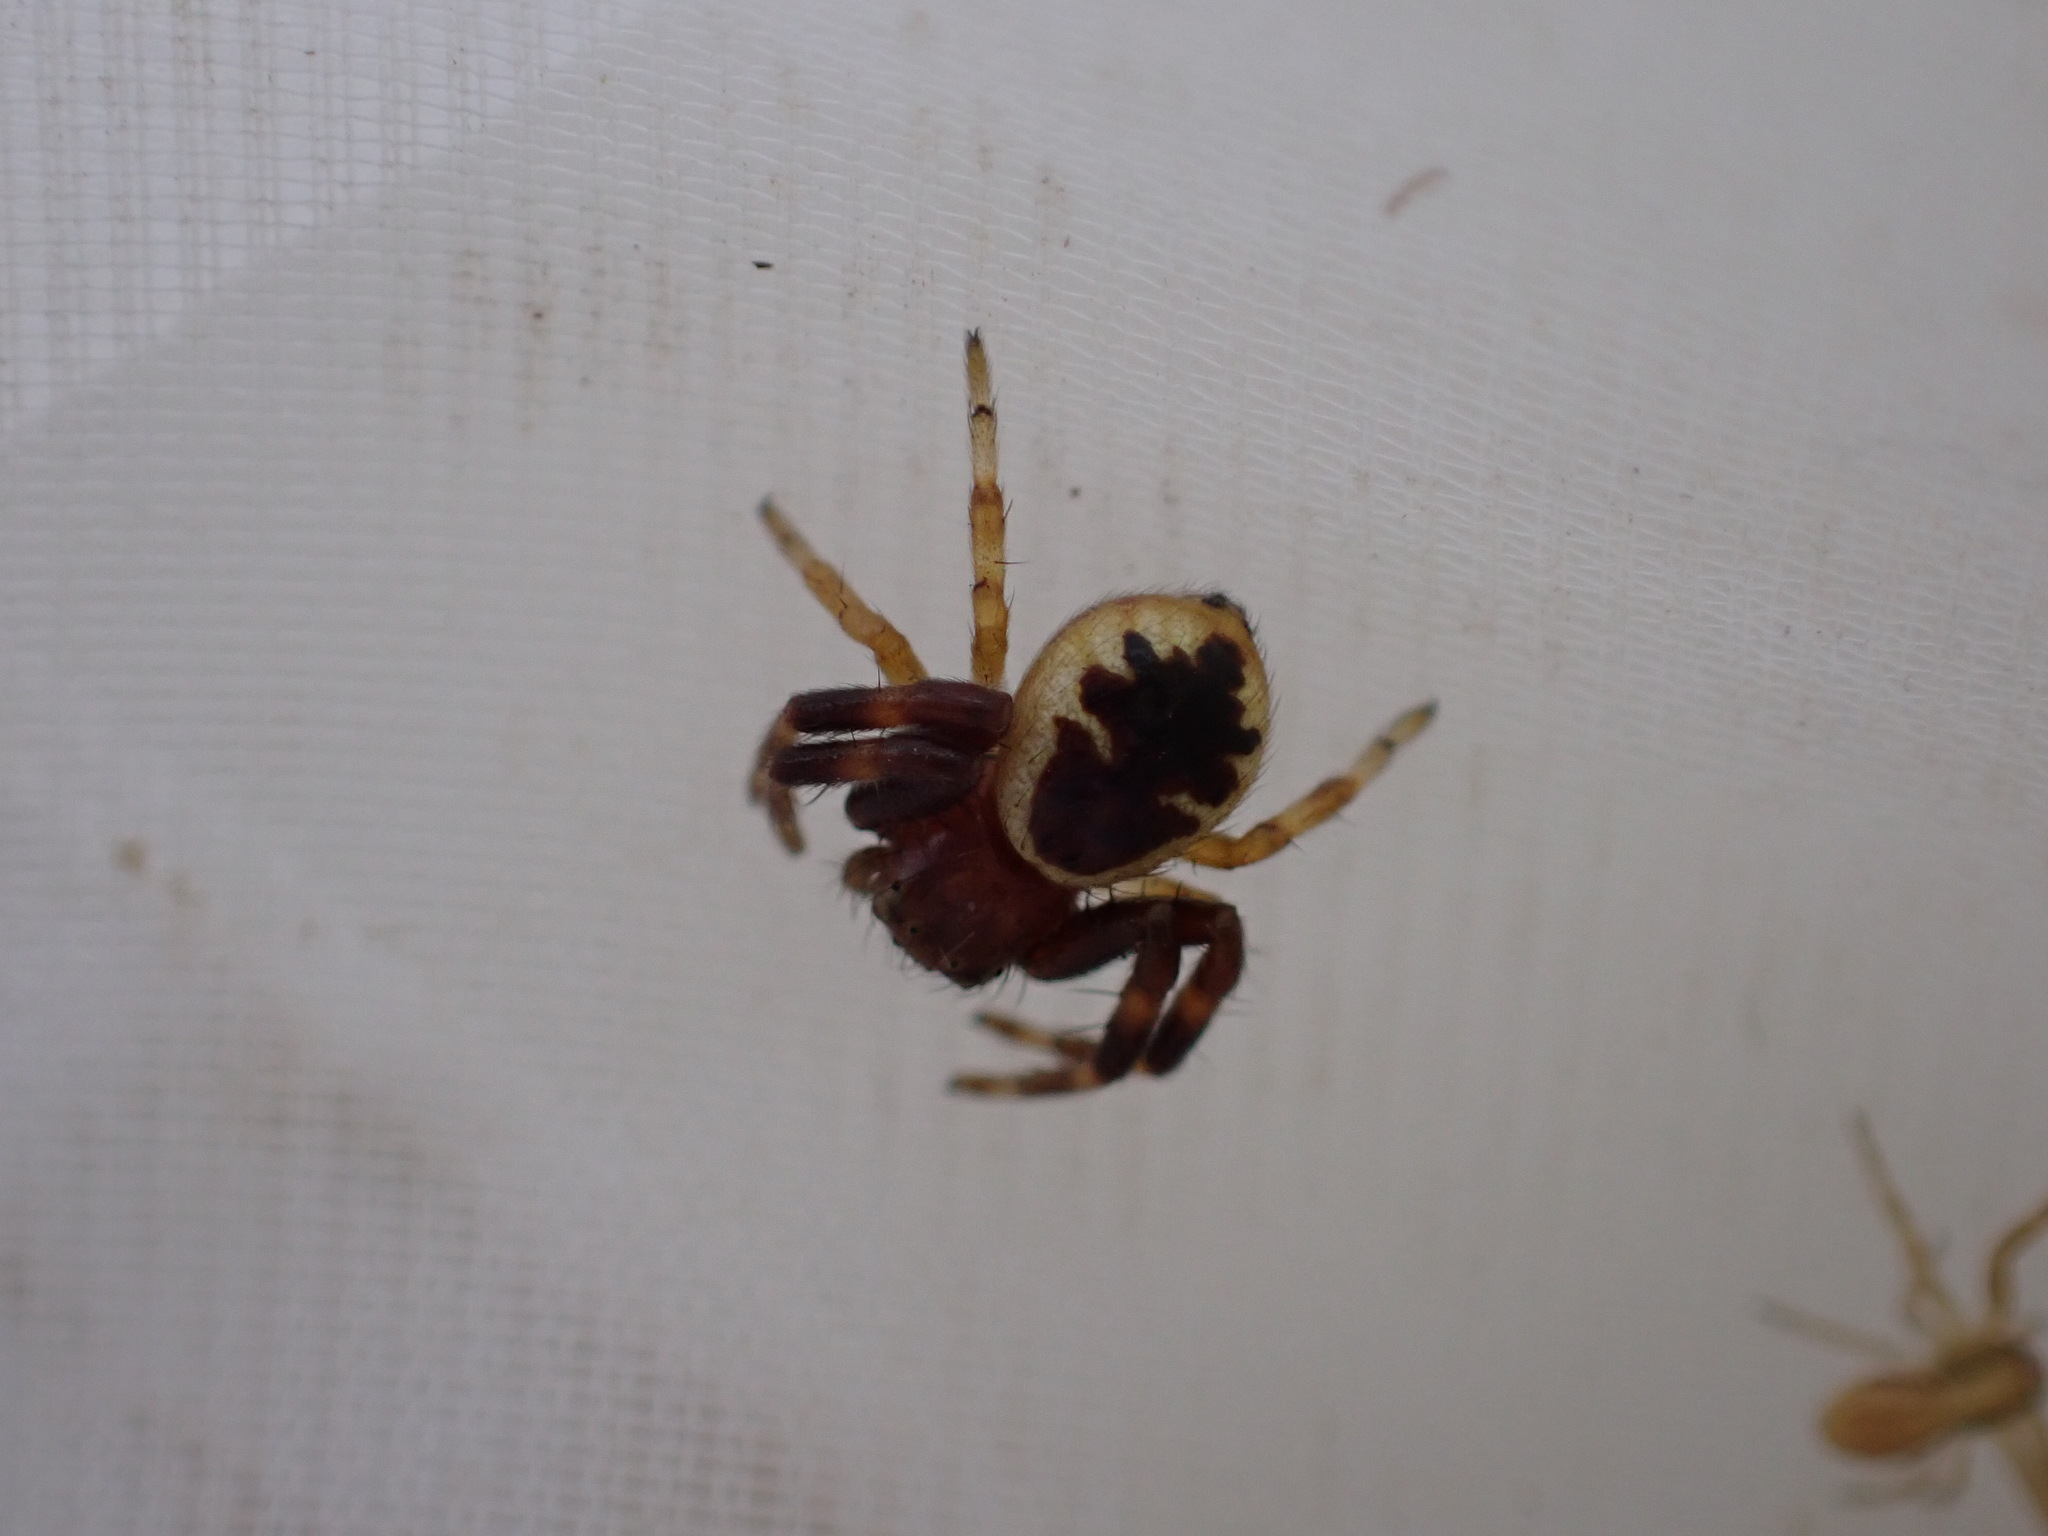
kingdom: Animalia
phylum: Arthropoda
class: Arachnida
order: Araneae
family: Thomisidae
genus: Synema
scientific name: Synema globosum
